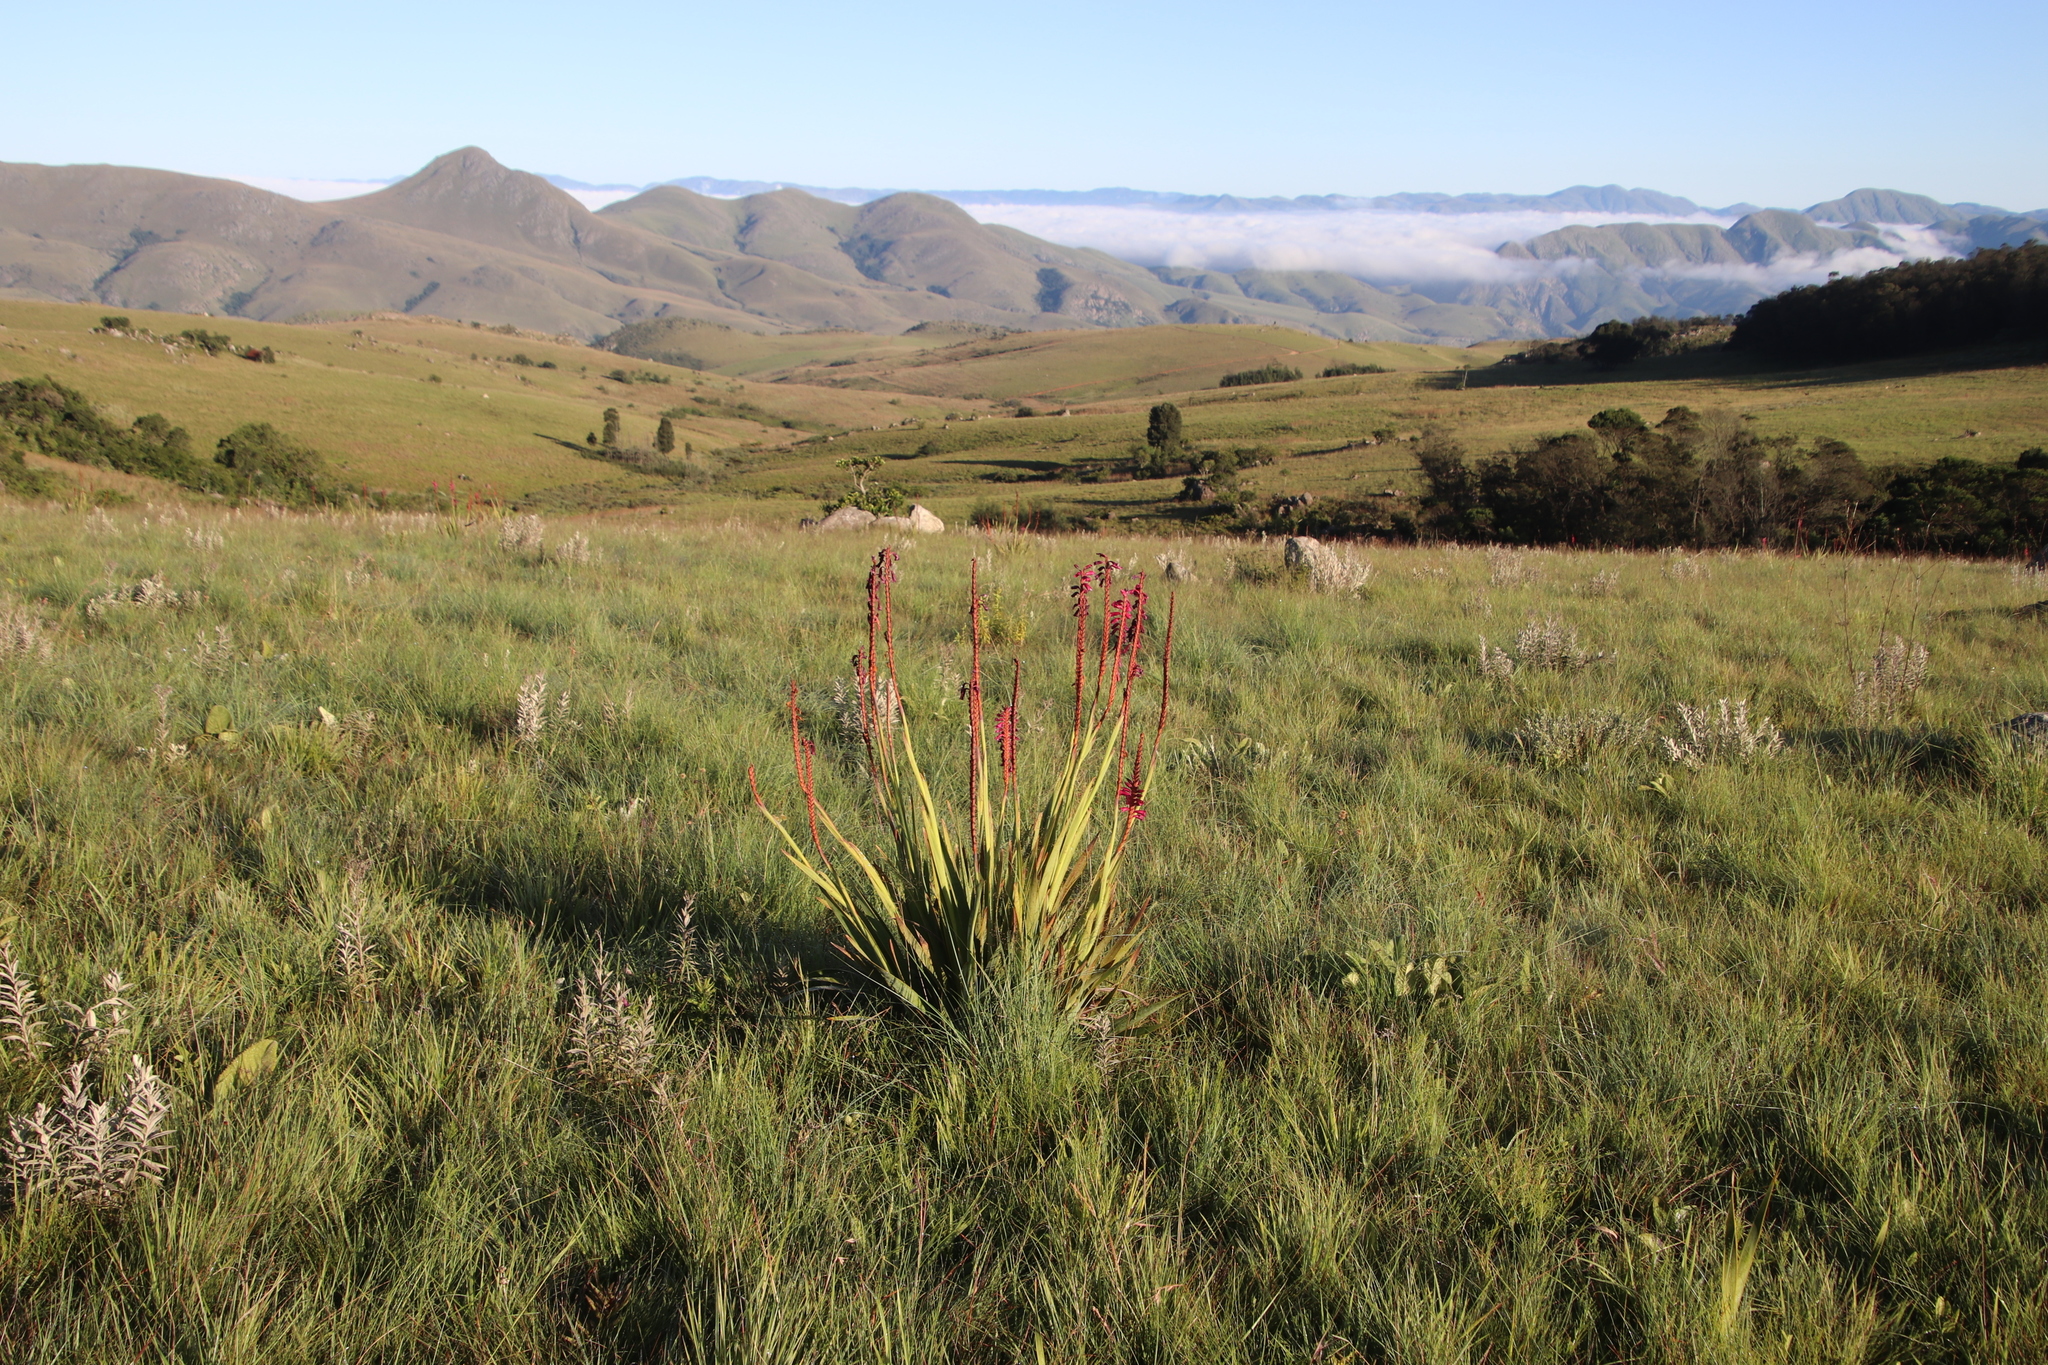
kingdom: Plantae
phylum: Tracheophyta
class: Liliopsida
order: Asparagales
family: Iridaceae
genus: Watsonia
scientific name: Watsonia pulchra
